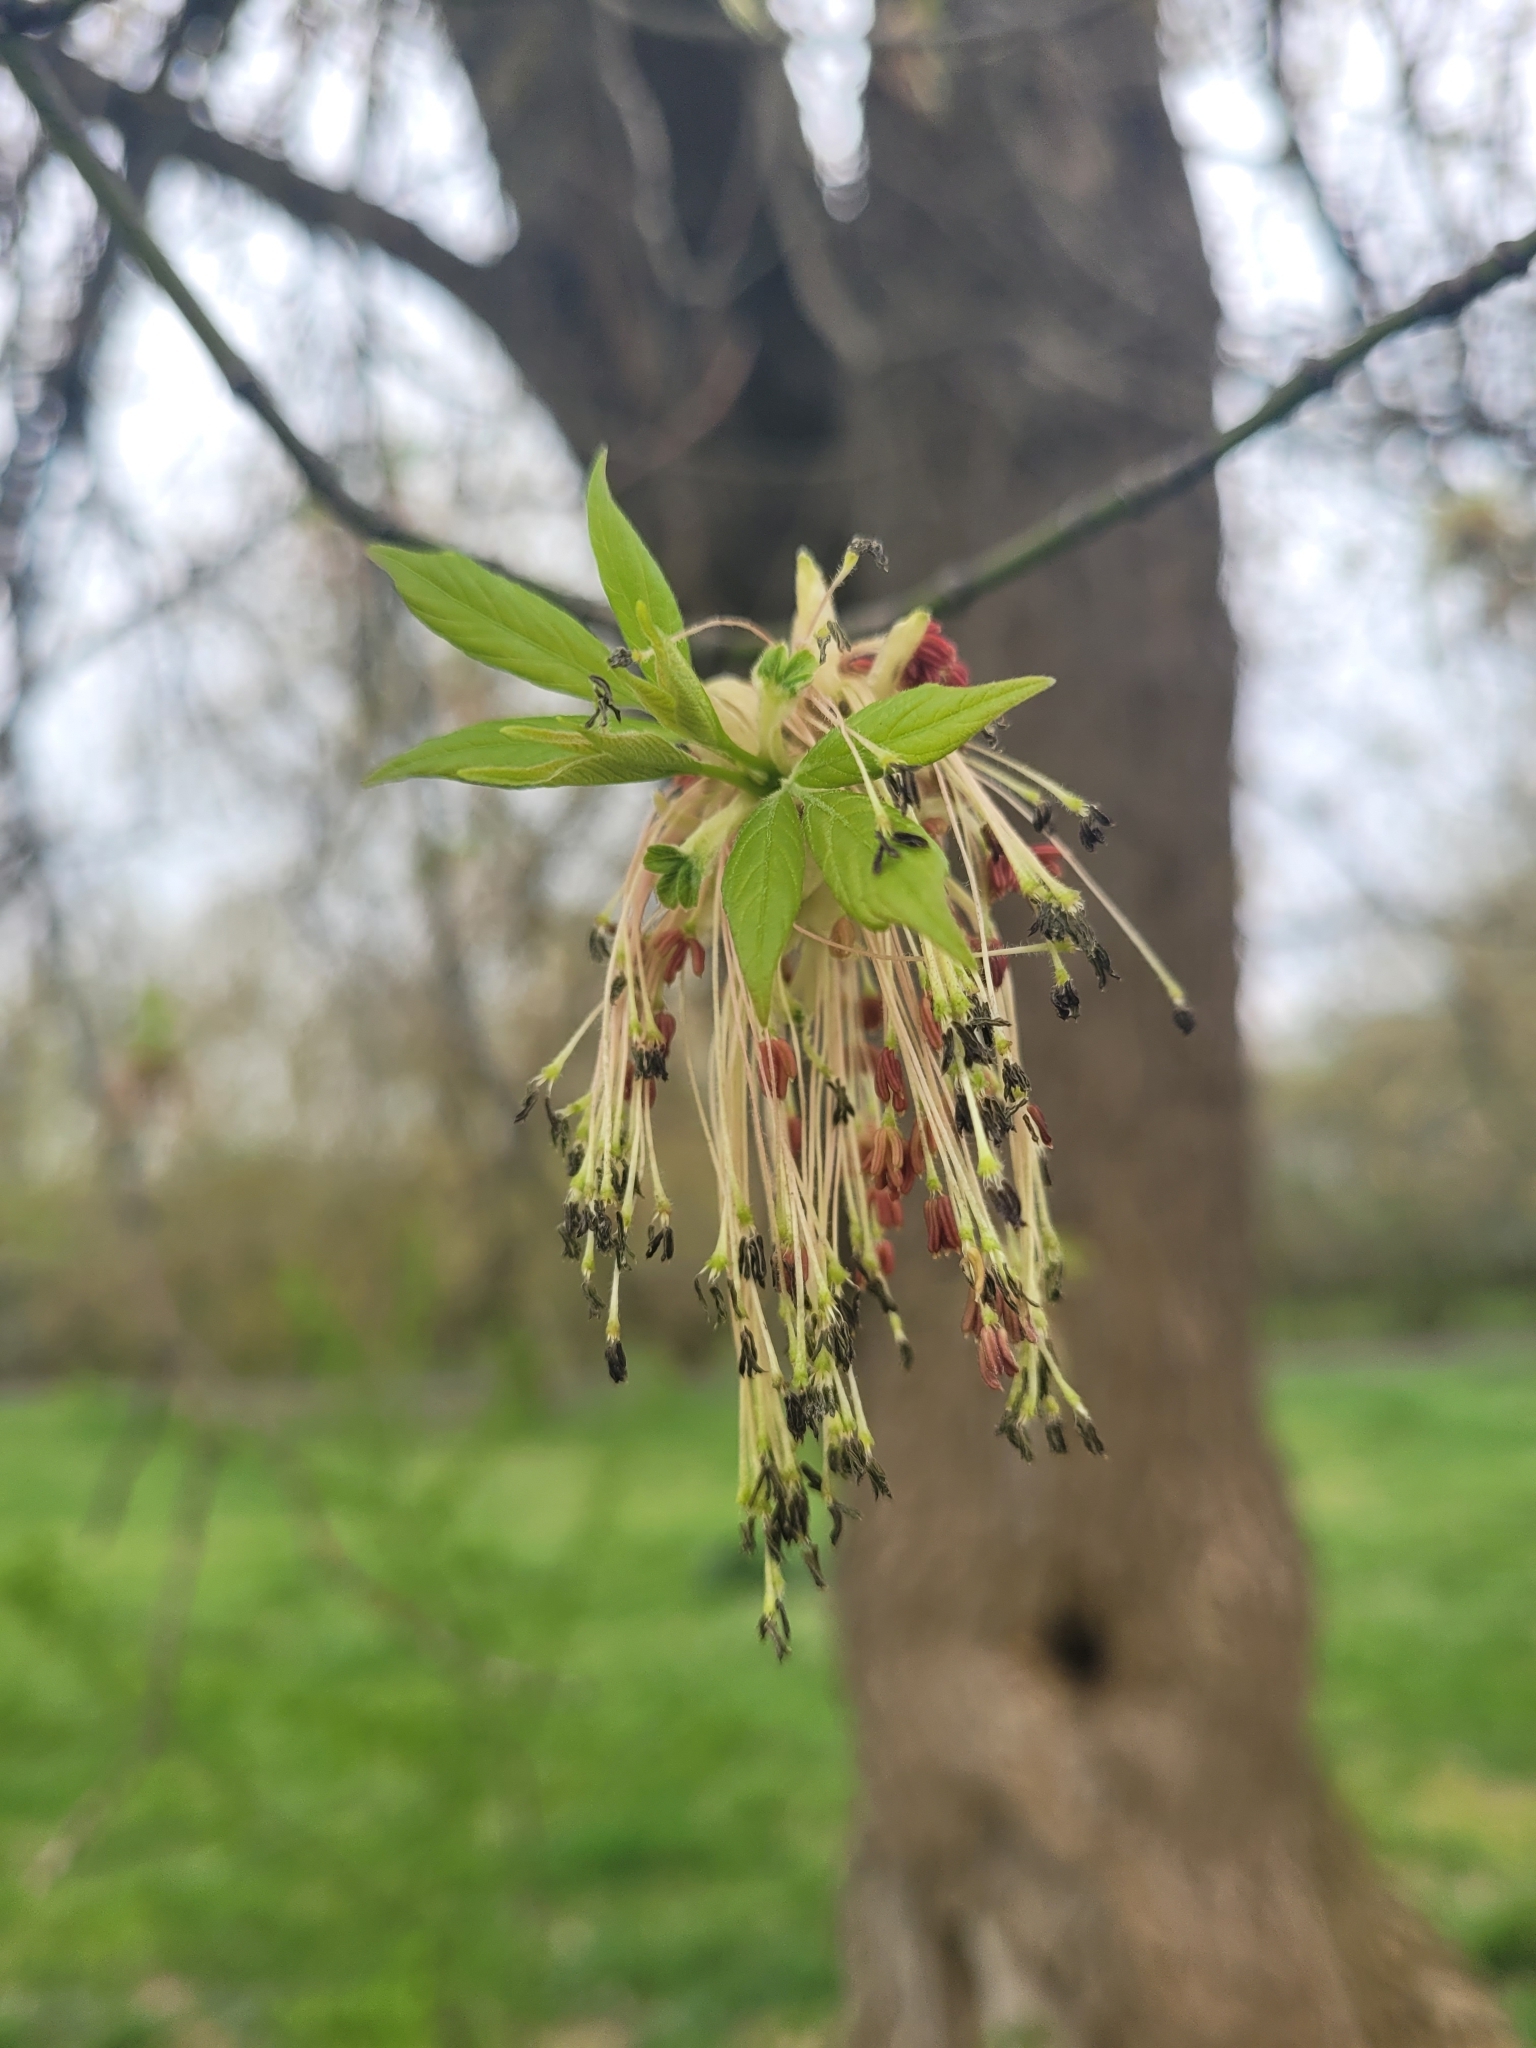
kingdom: Plantae
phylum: Tracheophyta
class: Magnoliopsida
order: Sapindales
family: Sapindaceae
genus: Acer
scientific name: Acer negundo
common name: Ashleaf maple
